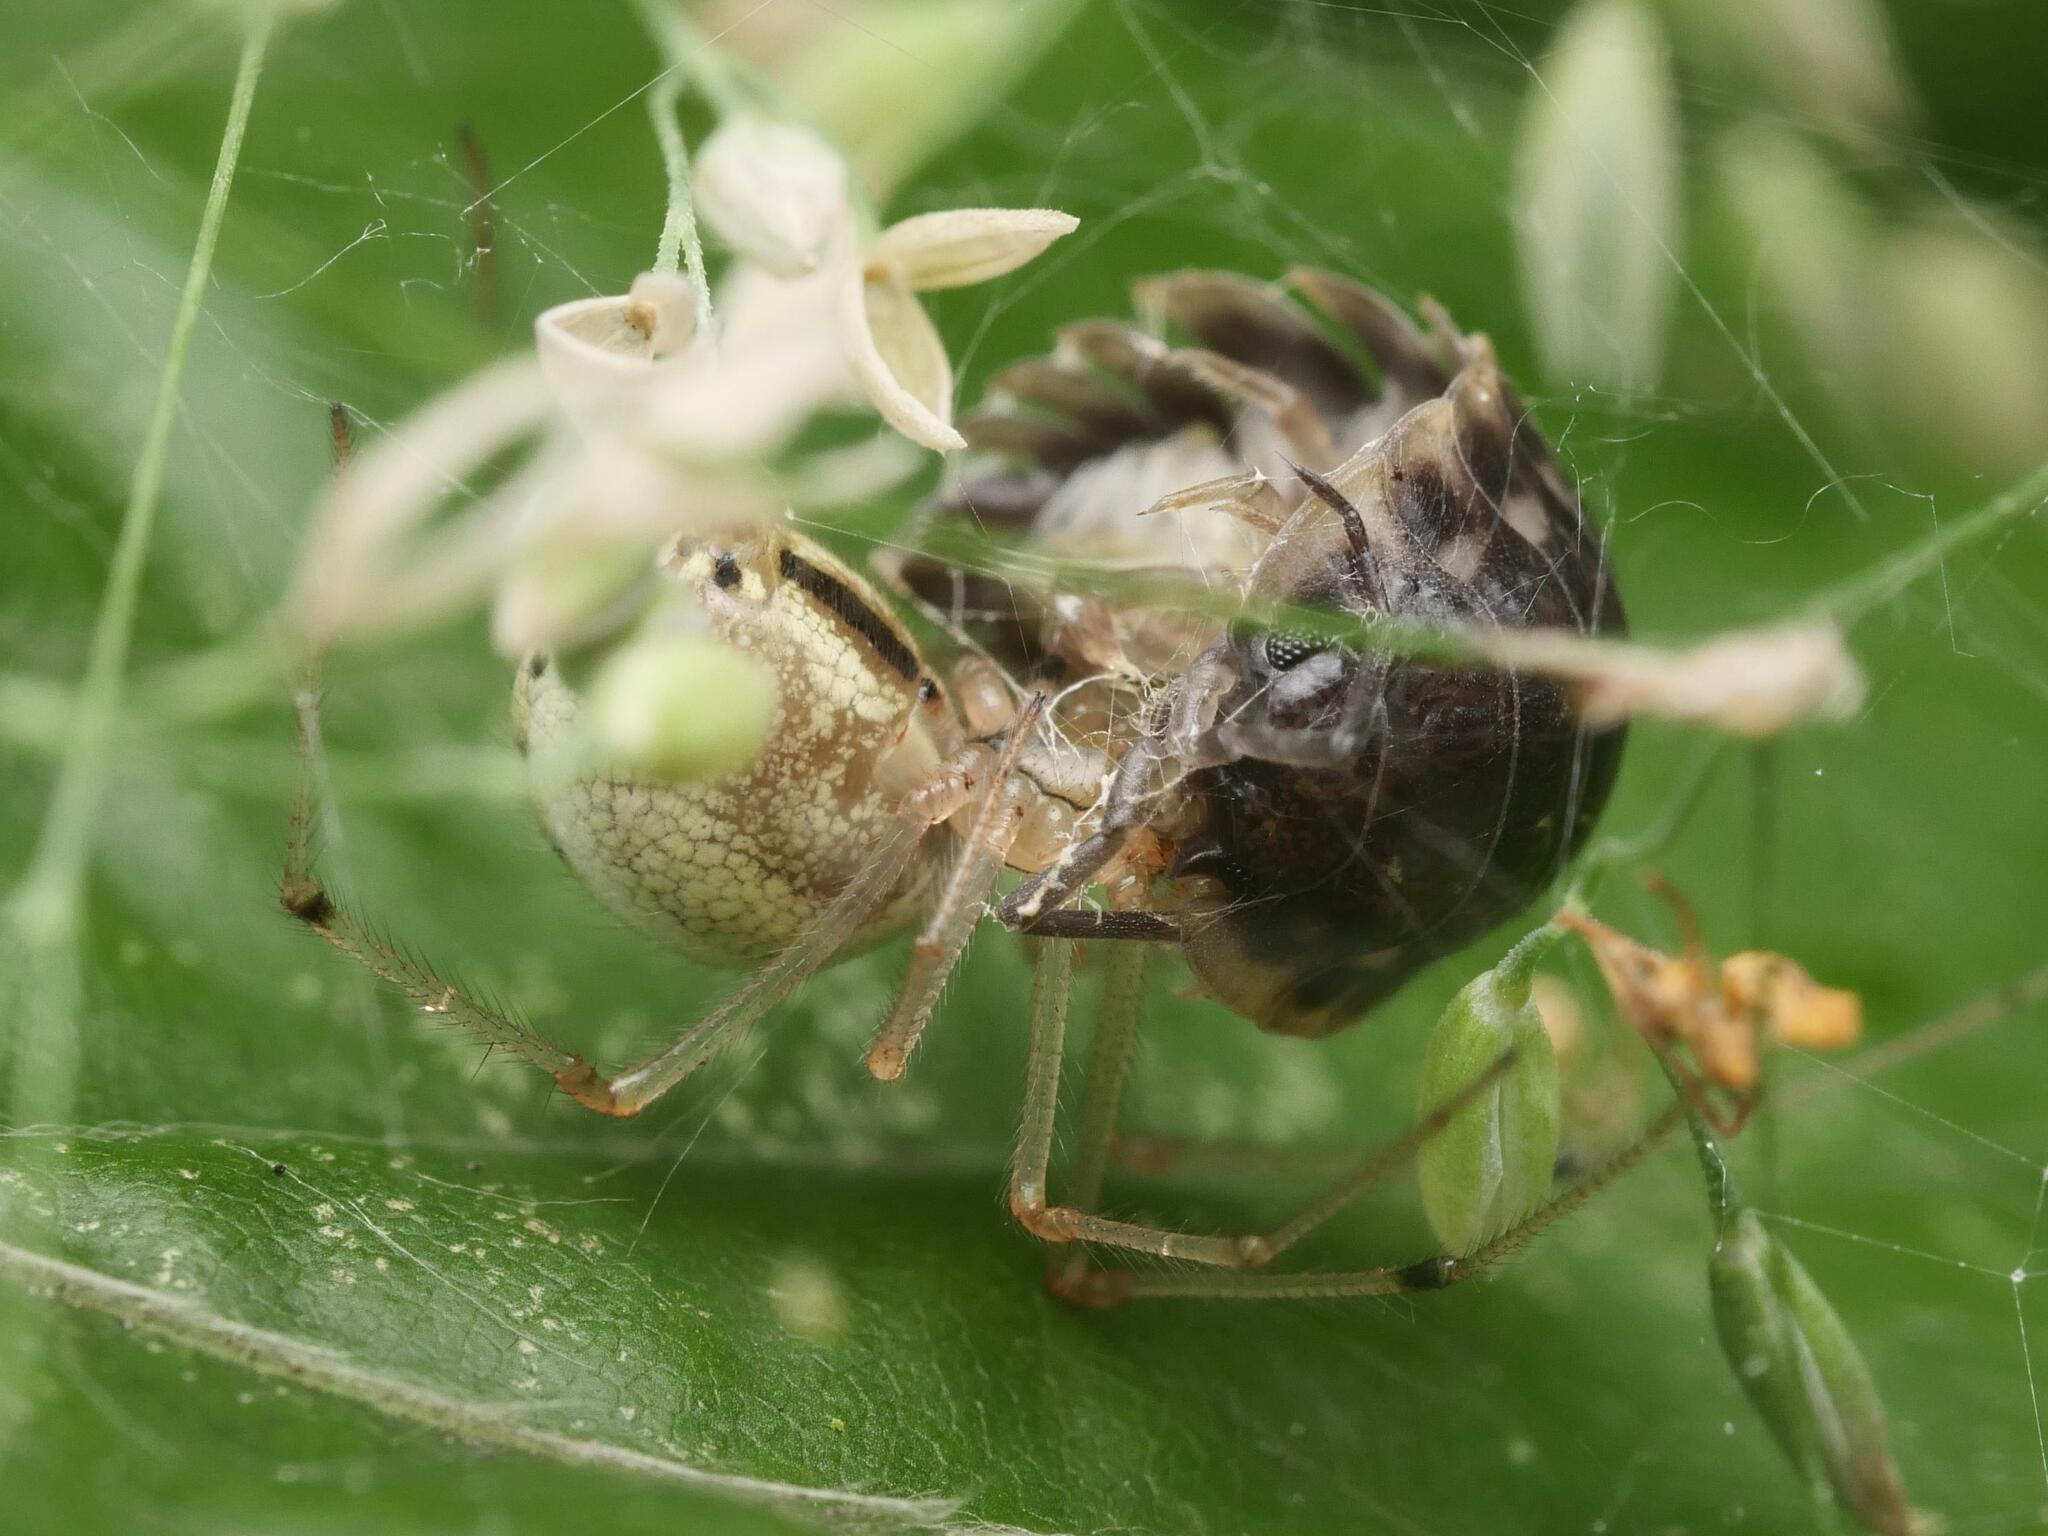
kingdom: Animalia
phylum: Arthropoda
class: Malacostraca
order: Isopoda
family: Oniscidae
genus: Oniscus
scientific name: Oniscus asellus
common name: Common shiny woodlouse
